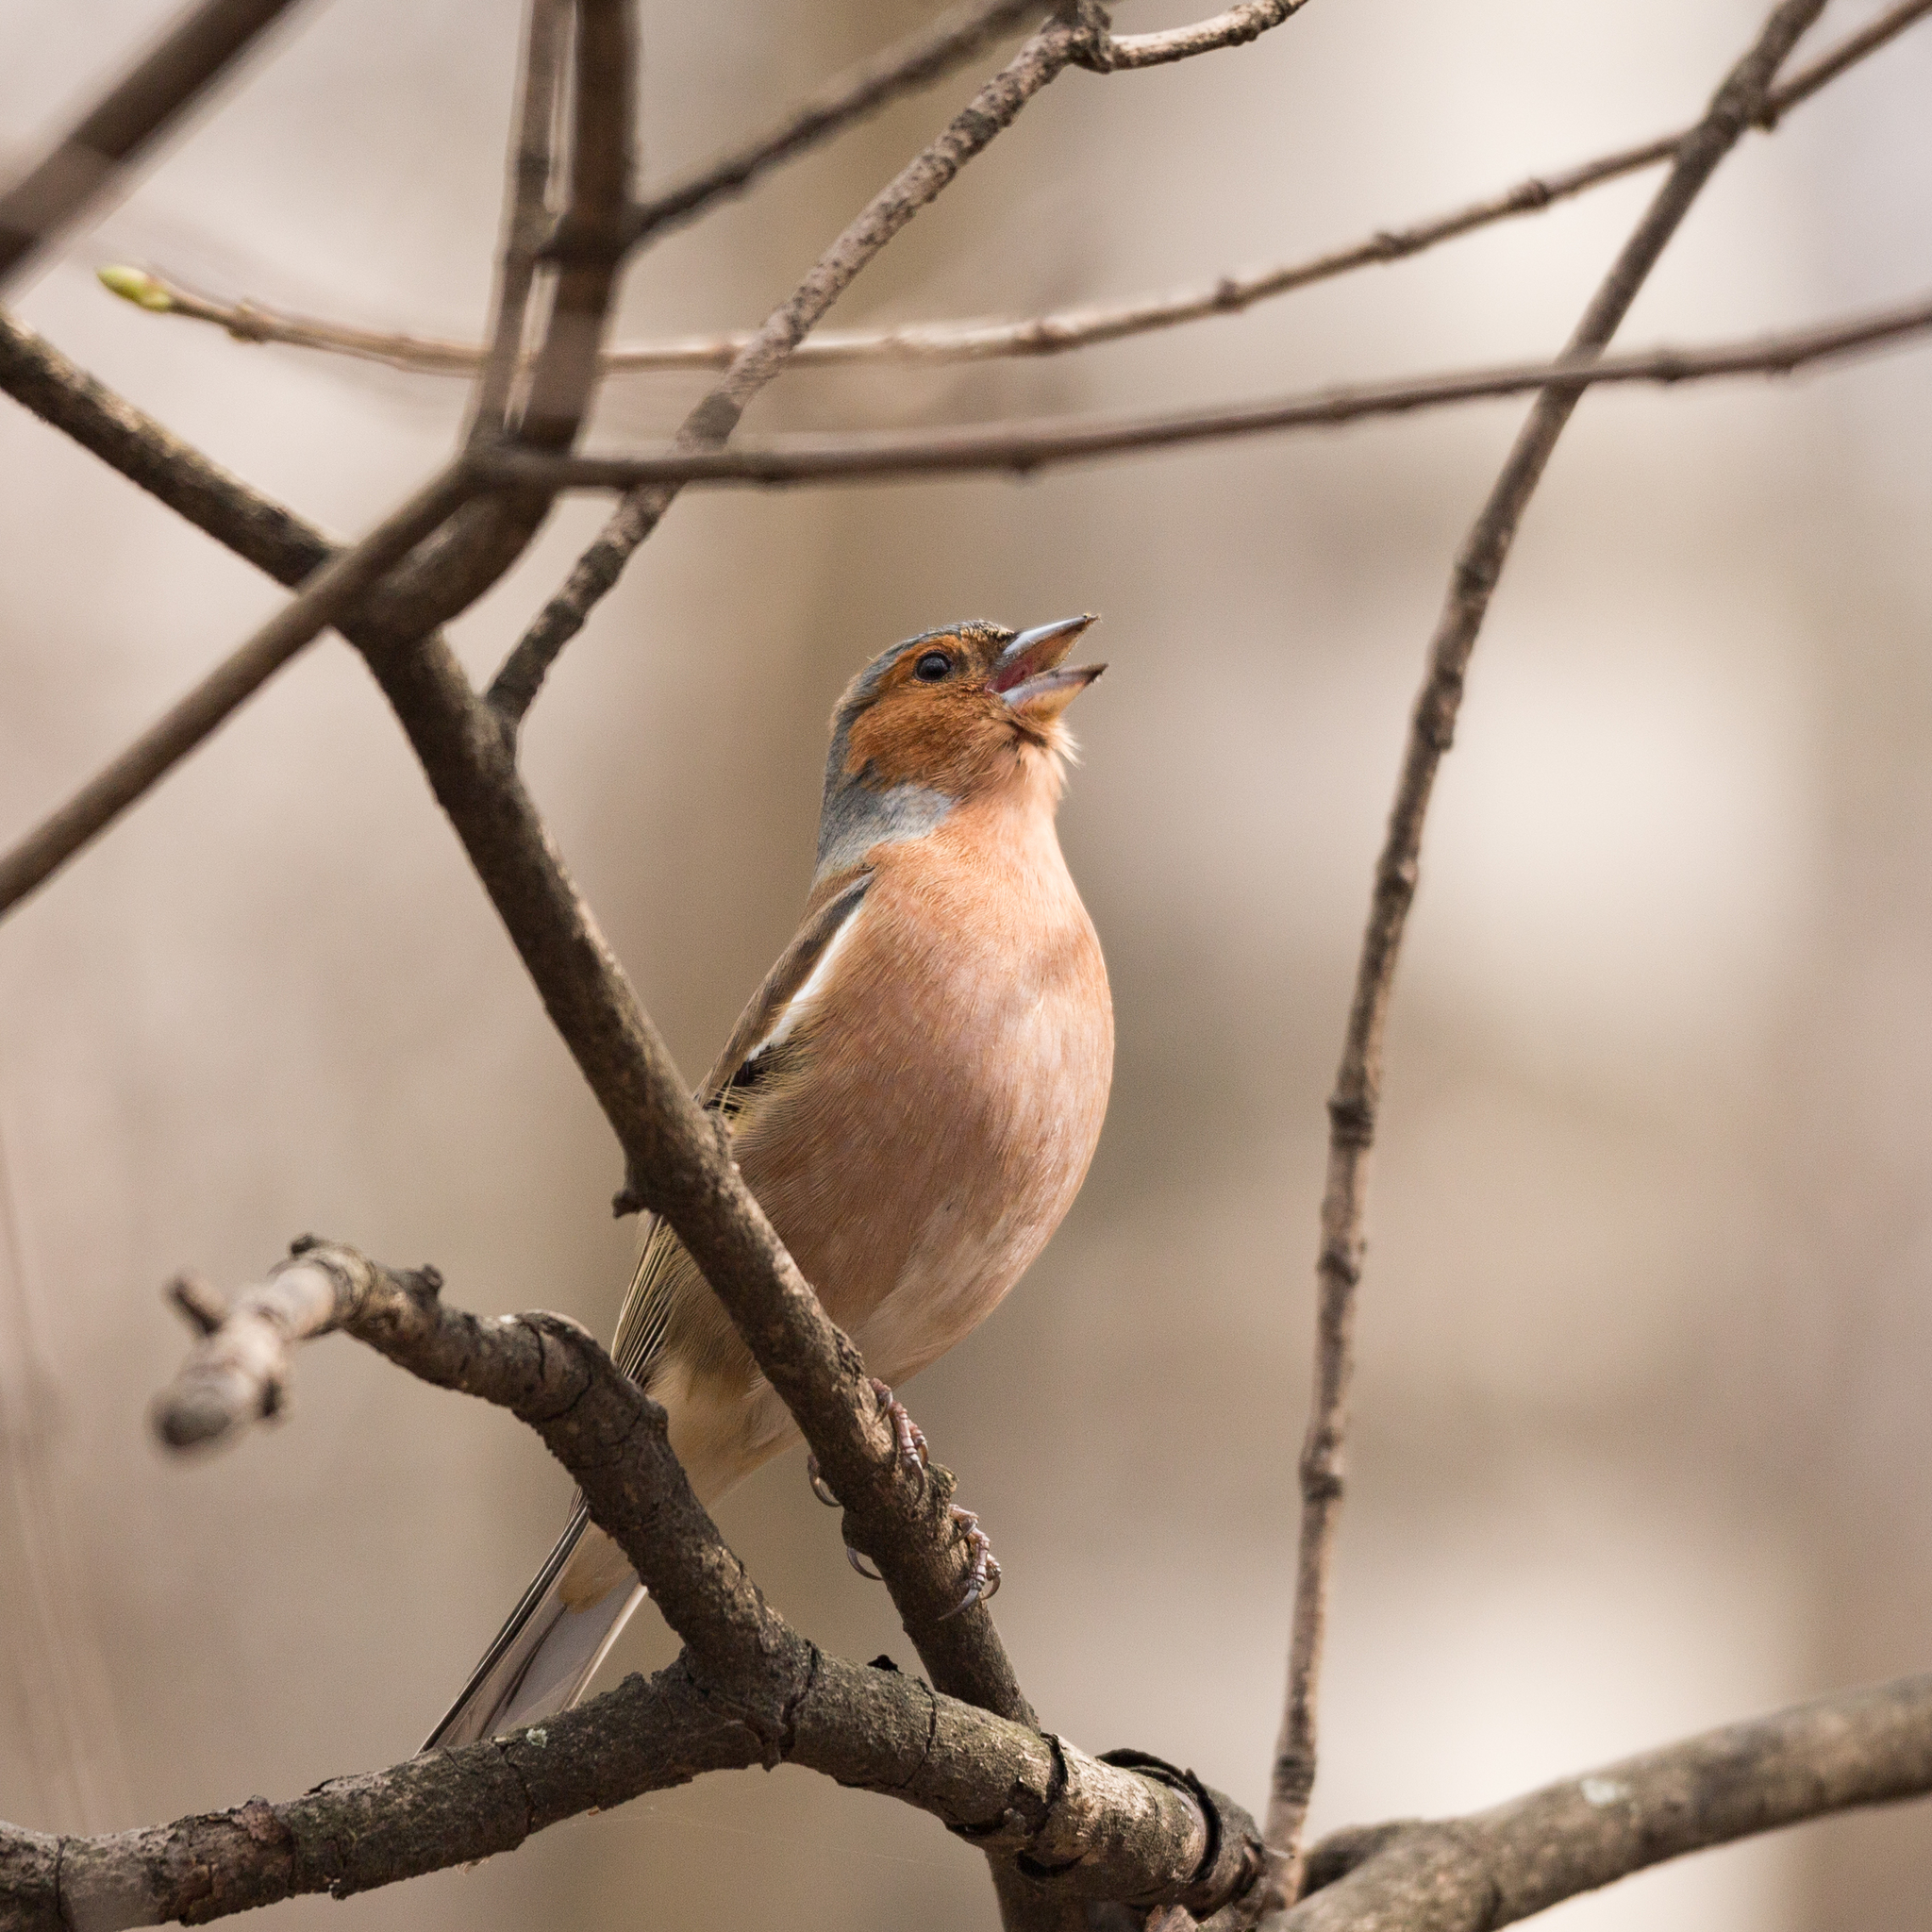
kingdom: Animalia
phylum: Chordata
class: Aves
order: Passeriformes
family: Fringillidae
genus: Fringilla
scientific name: Fringilla coelebs
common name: Common chaffinch
